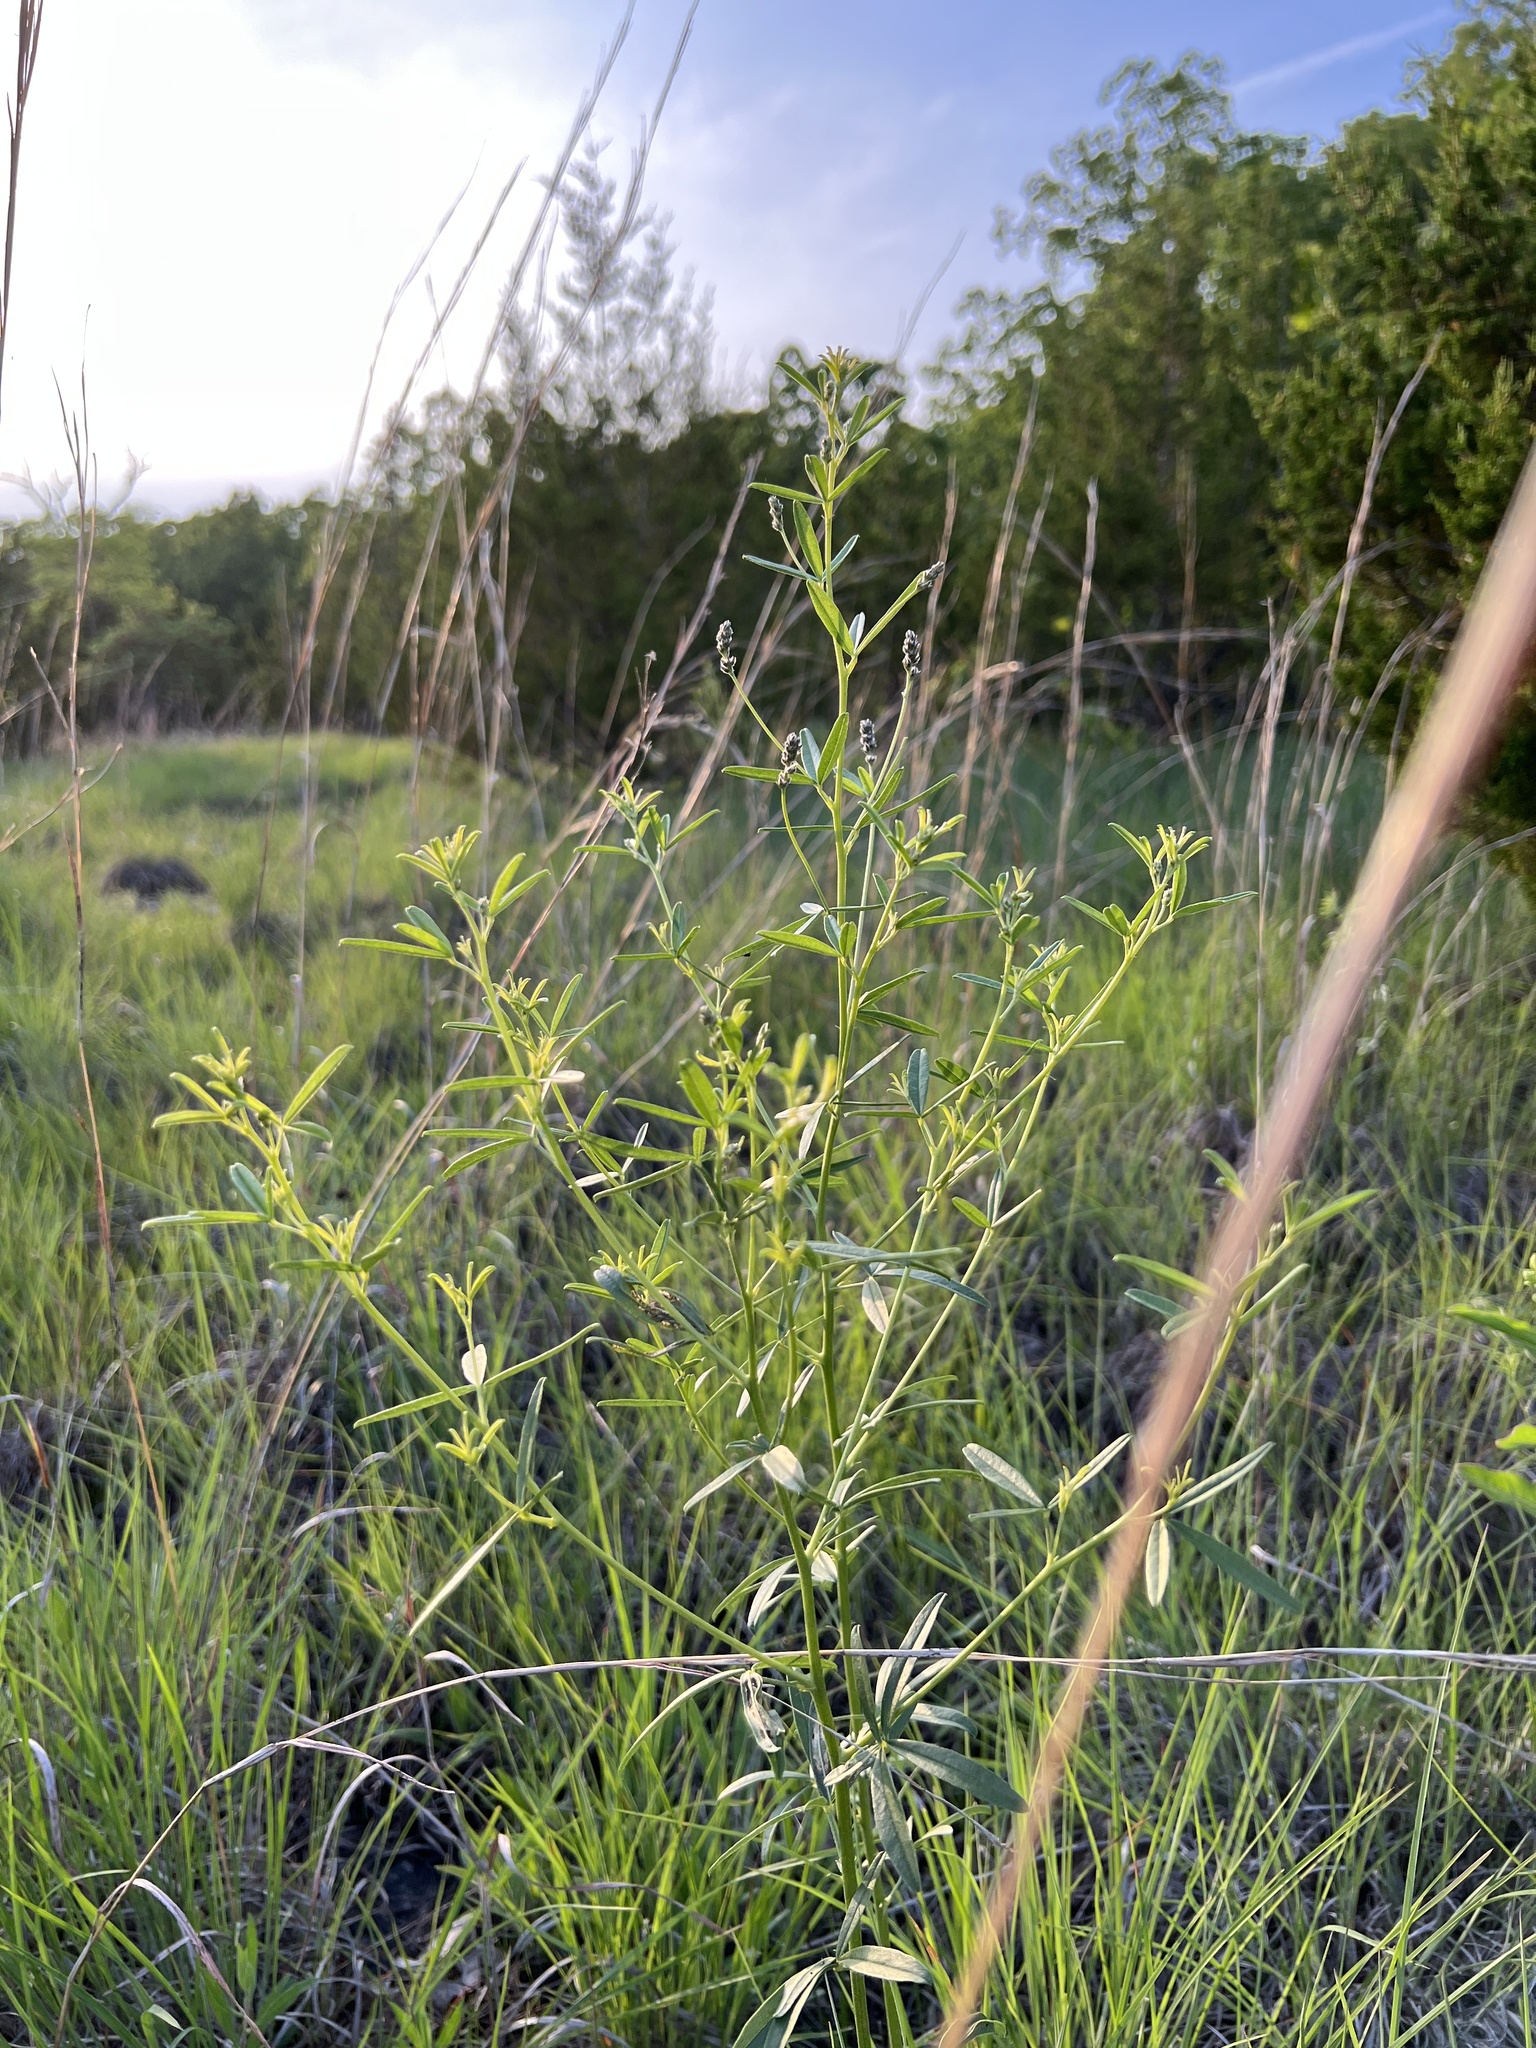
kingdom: Plantae
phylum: Tracheophyta
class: Magnoliopsida
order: Fabales
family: Fabaceae
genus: Pediomelum
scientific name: Pediomelum tenuiflorum
